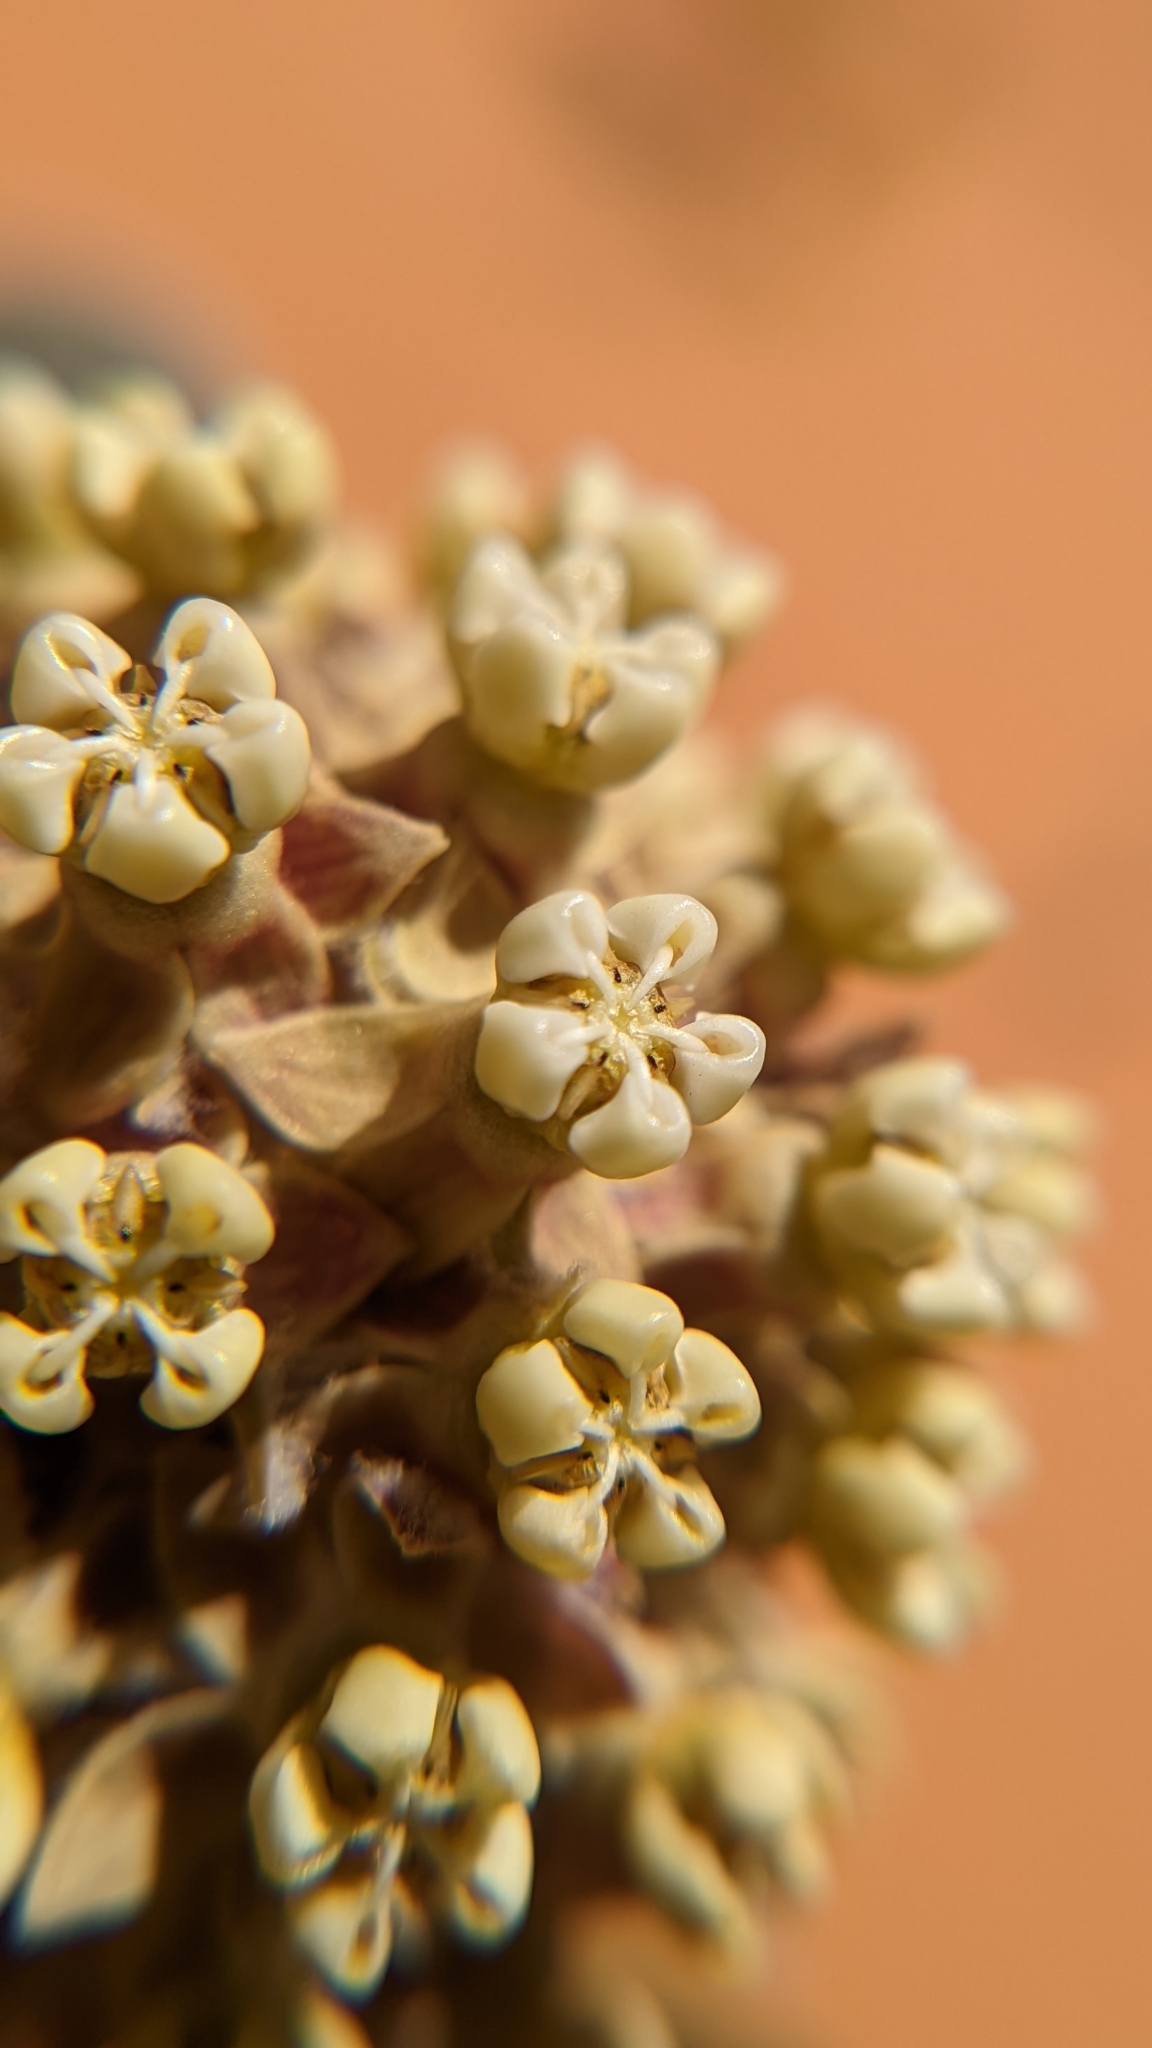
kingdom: Plantae
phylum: Tracheophyta
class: Magnoliopsida
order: Gentianales
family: Apocynaceae
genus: Asclepias
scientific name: Asclepias welshii
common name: Welsch's milkweed
